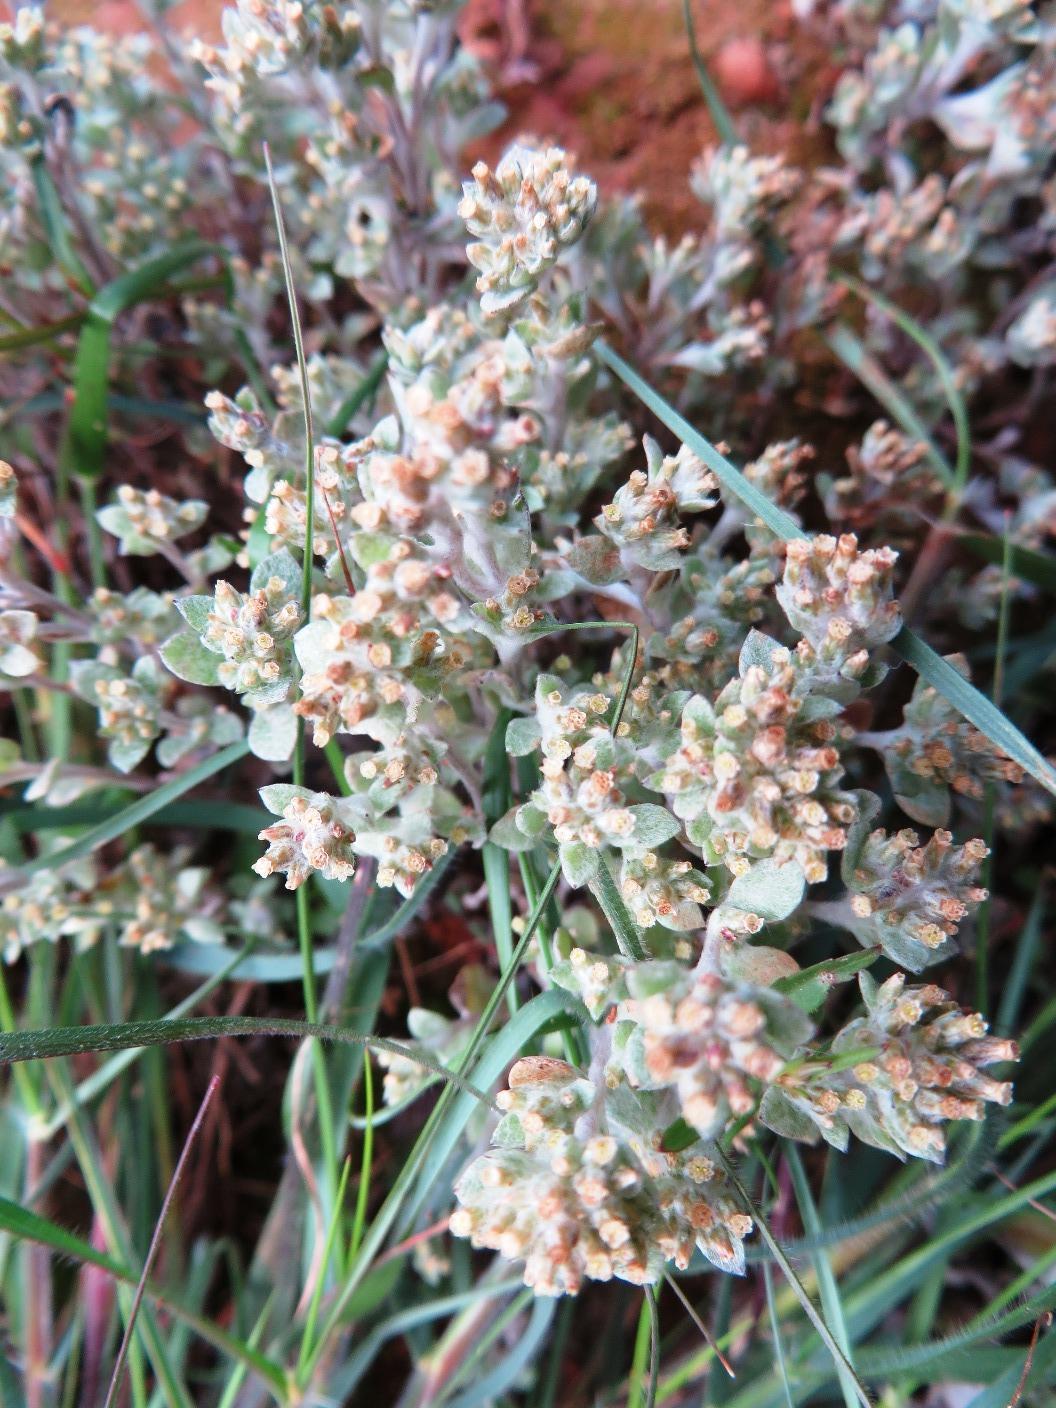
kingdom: Plantae
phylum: Tracheophyta
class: Magnoliopsida
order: Asterales
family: Asteraceae
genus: Troglophyton
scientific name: Troglophyton parvulum
